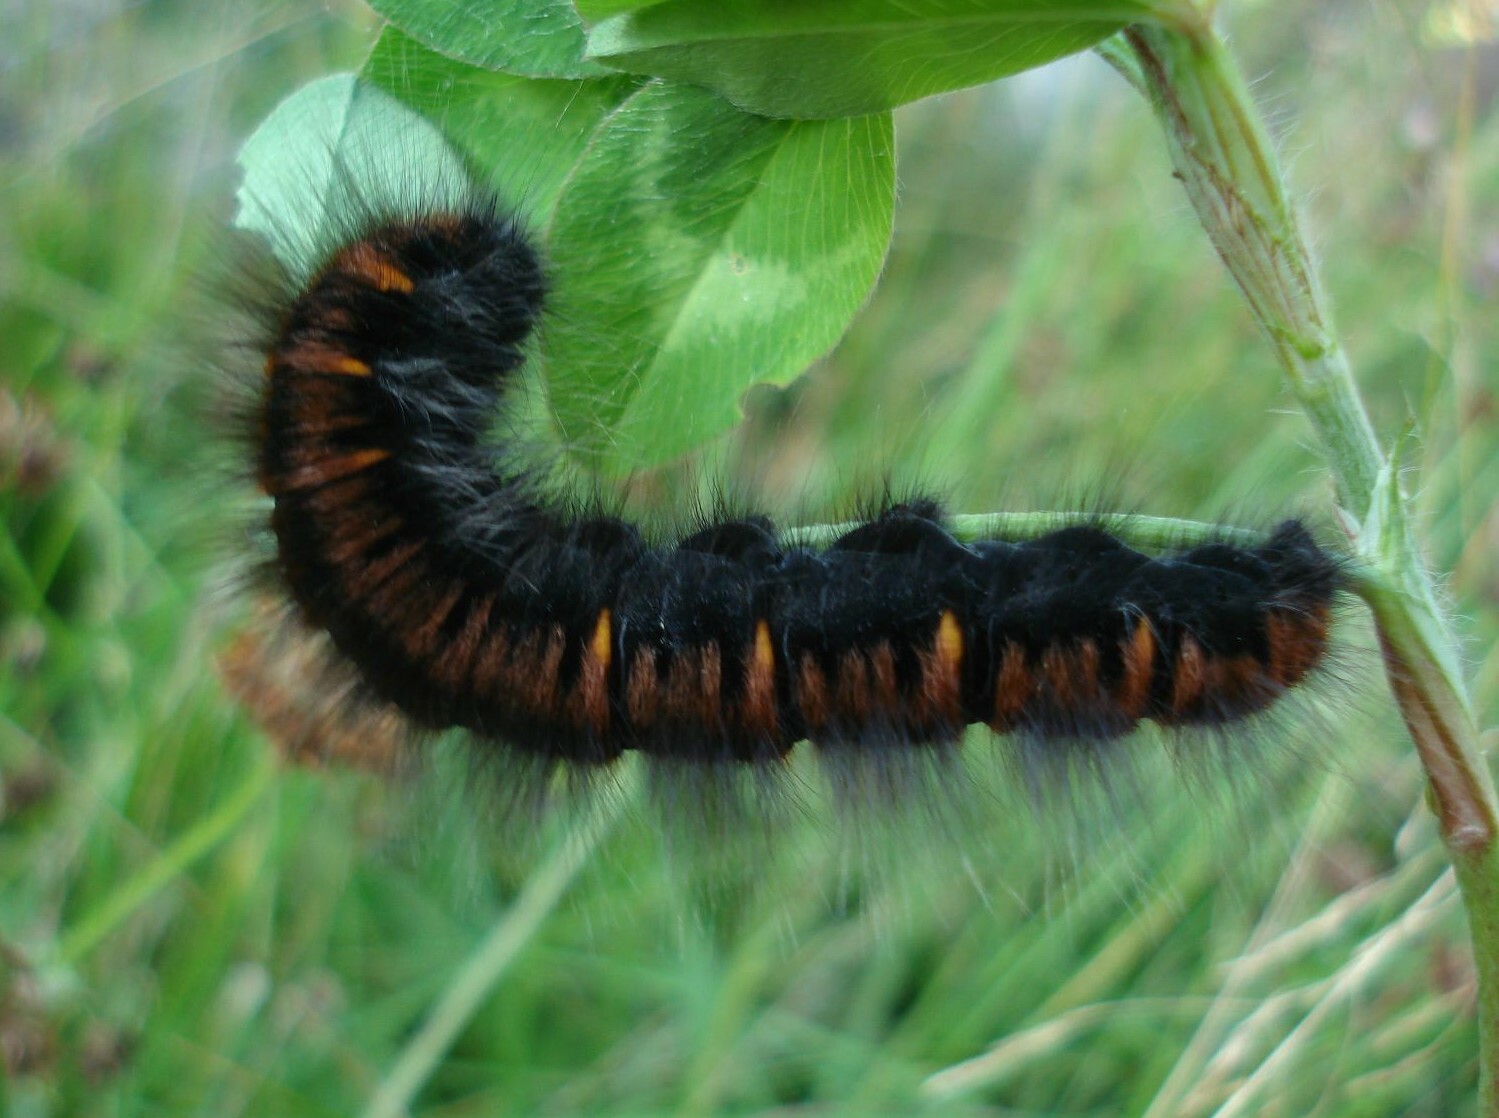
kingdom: Animalia
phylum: Arthropoda
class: Insecta
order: Lepidoptera
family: Lasiocampidae
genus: Macrothylacia
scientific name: Macrothylacia rubi
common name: Fox moth
